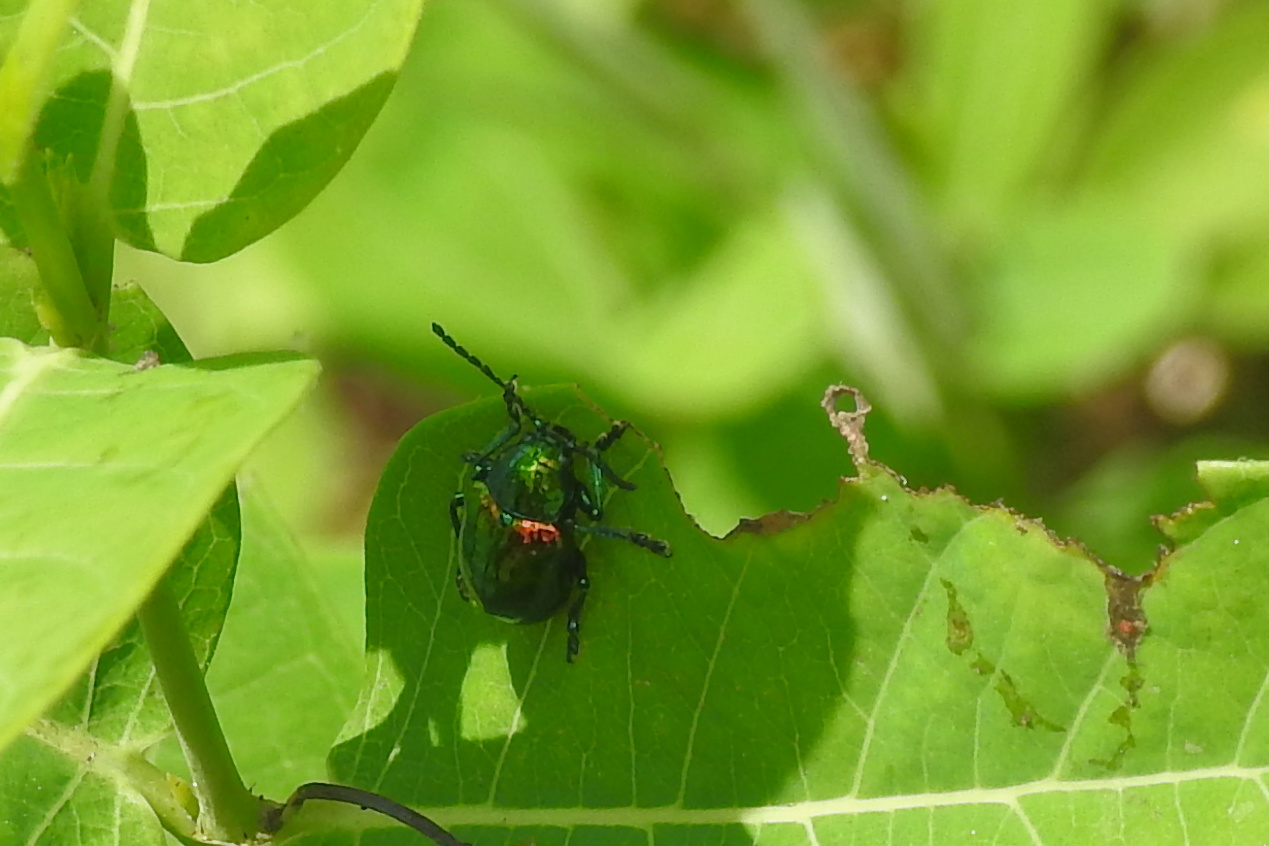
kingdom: Animalia
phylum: Arthropoda
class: Insecta
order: Coleoptera
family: Chrysomelidae
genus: Chrysochus
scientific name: Chrysochus auratus
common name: Dogbane leaf beetle
